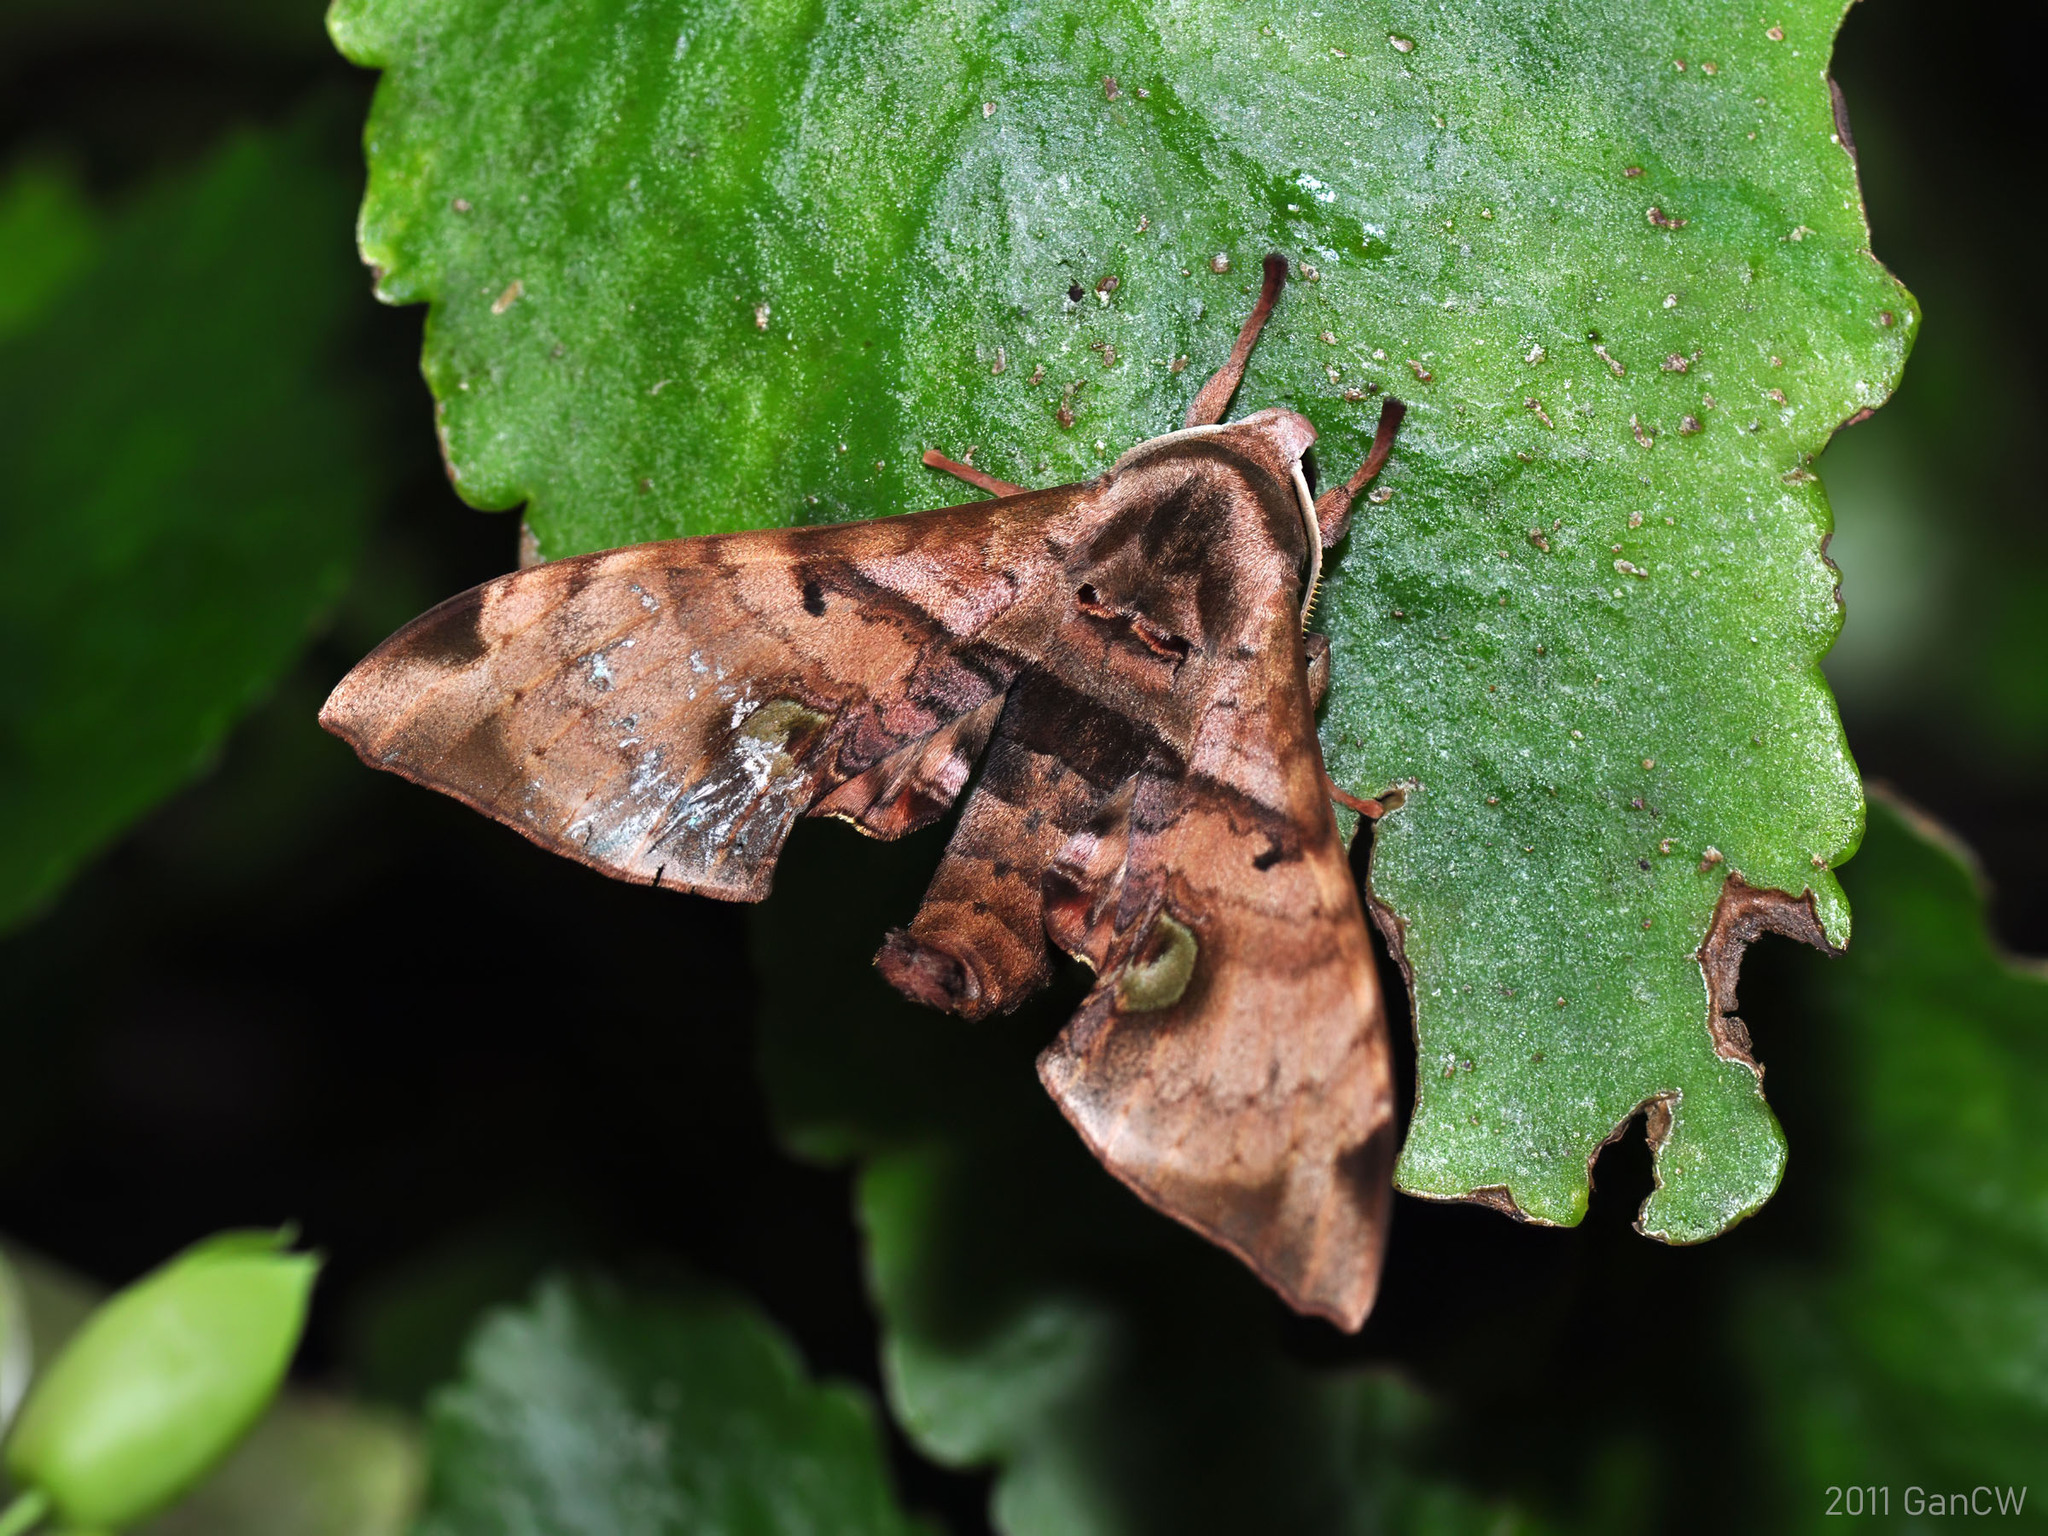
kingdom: Animalia
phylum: Arthropoda
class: Insecta
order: Lepidoptera
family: Sphingidae
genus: Daphnusa
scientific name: Daphnusa ocellaris
